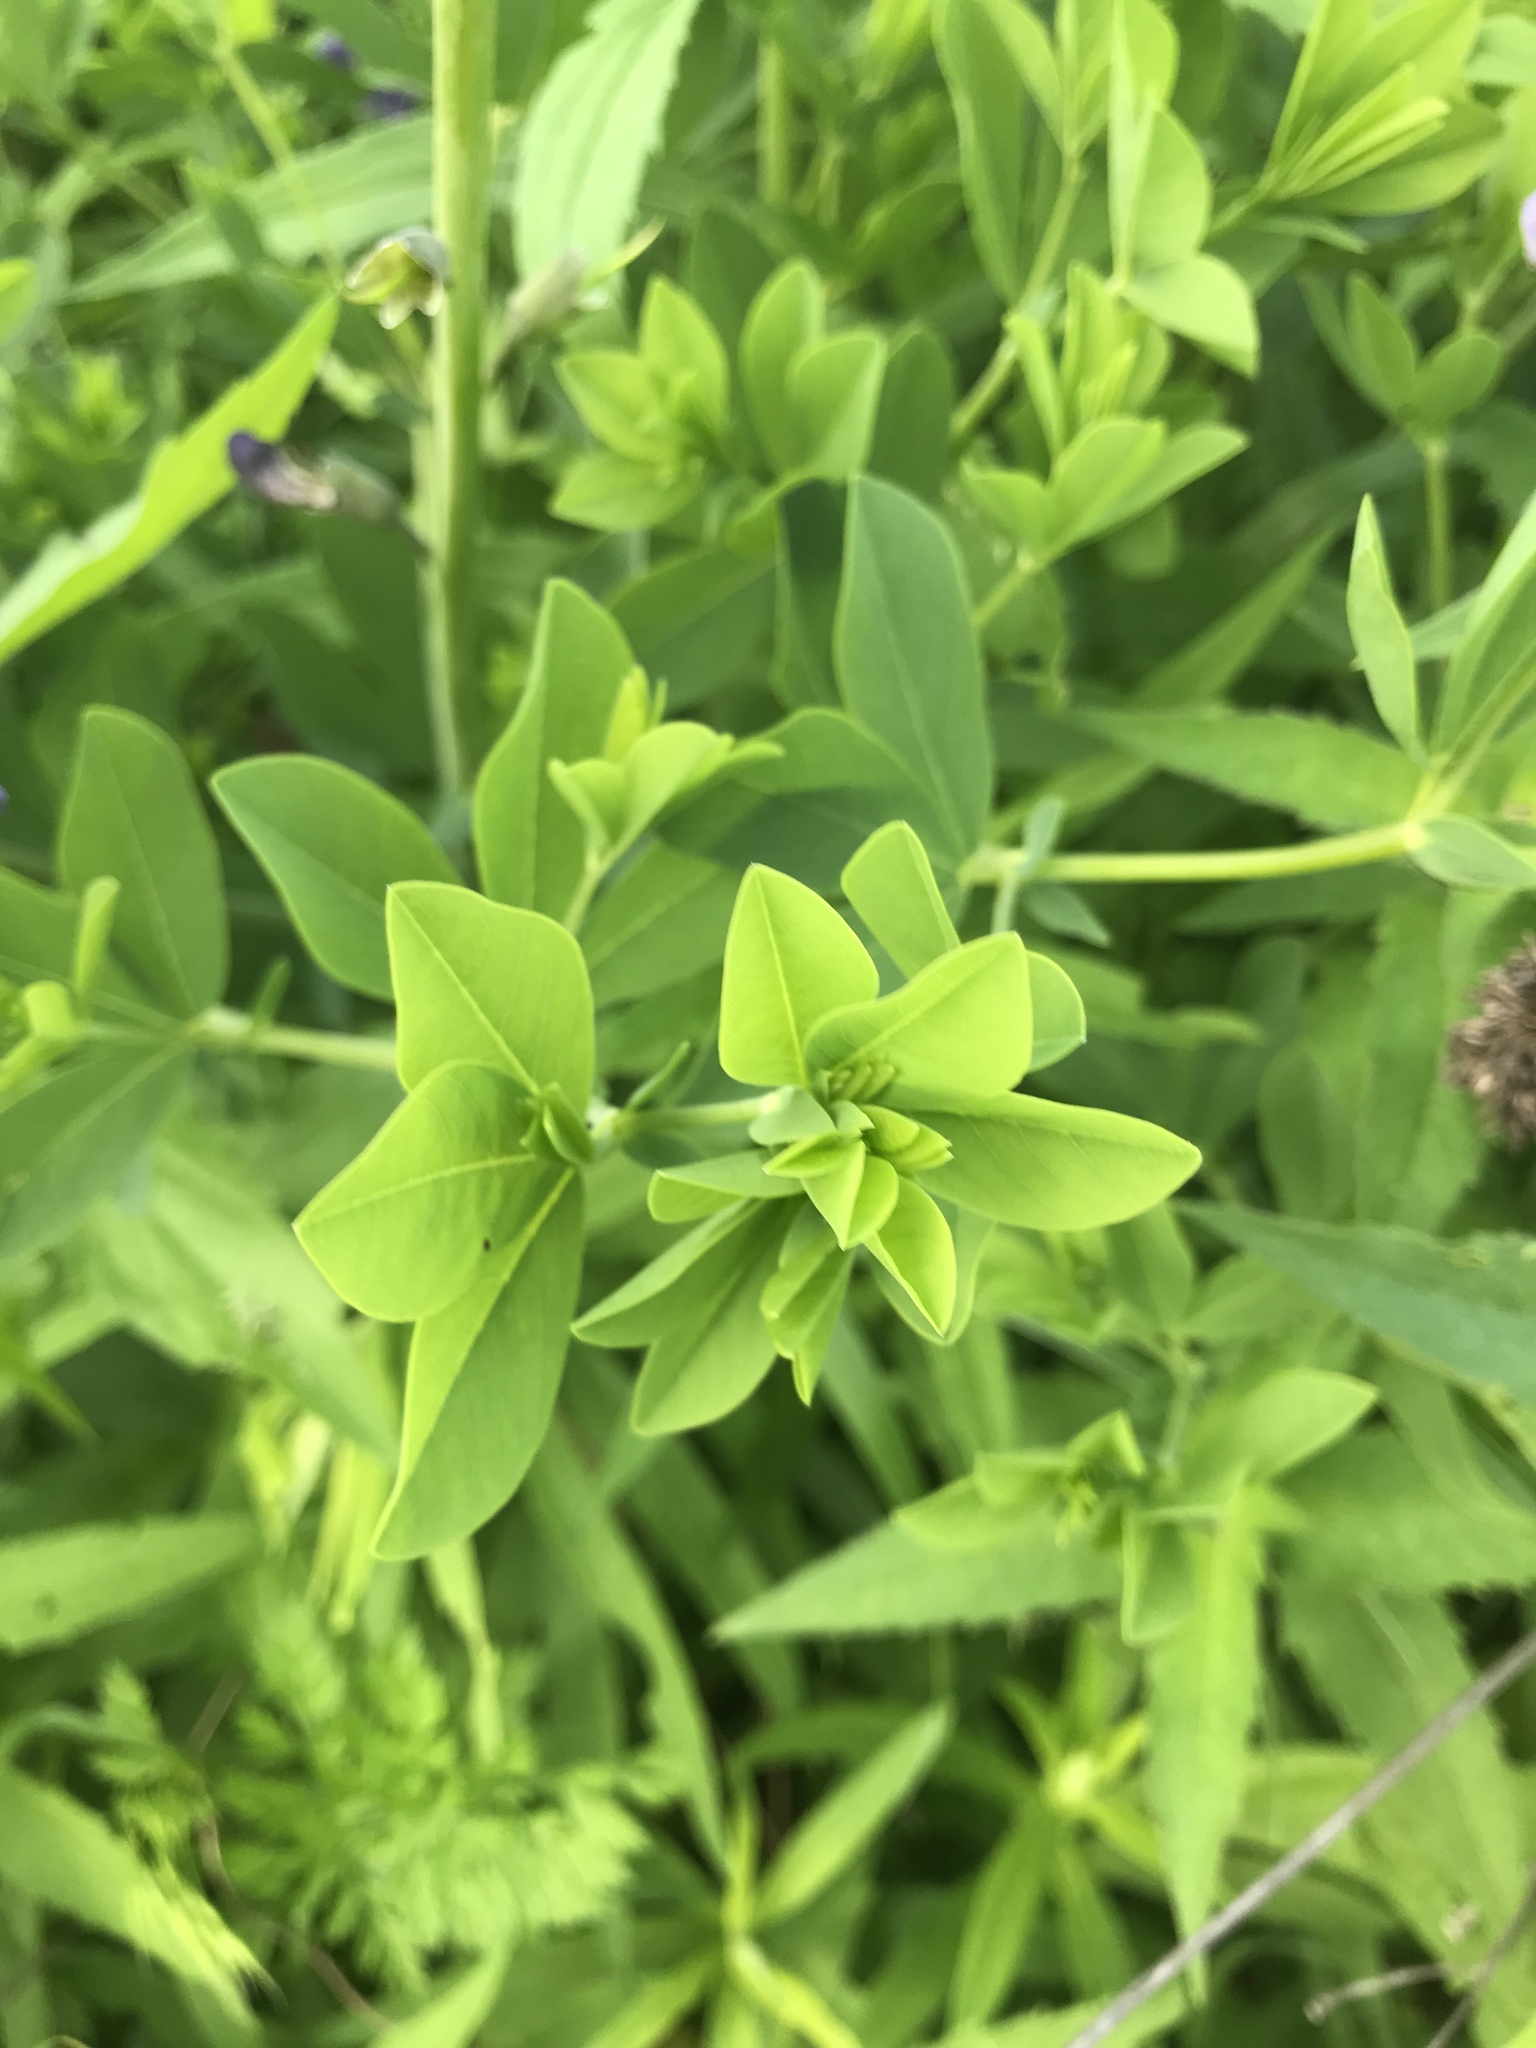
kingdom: Plantae
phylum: Tracheophyta
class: Magnoliopsida
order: Fabales
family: Fabaceae
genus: Baptisia
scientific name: Baptisia australis
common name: Blue false indigo
